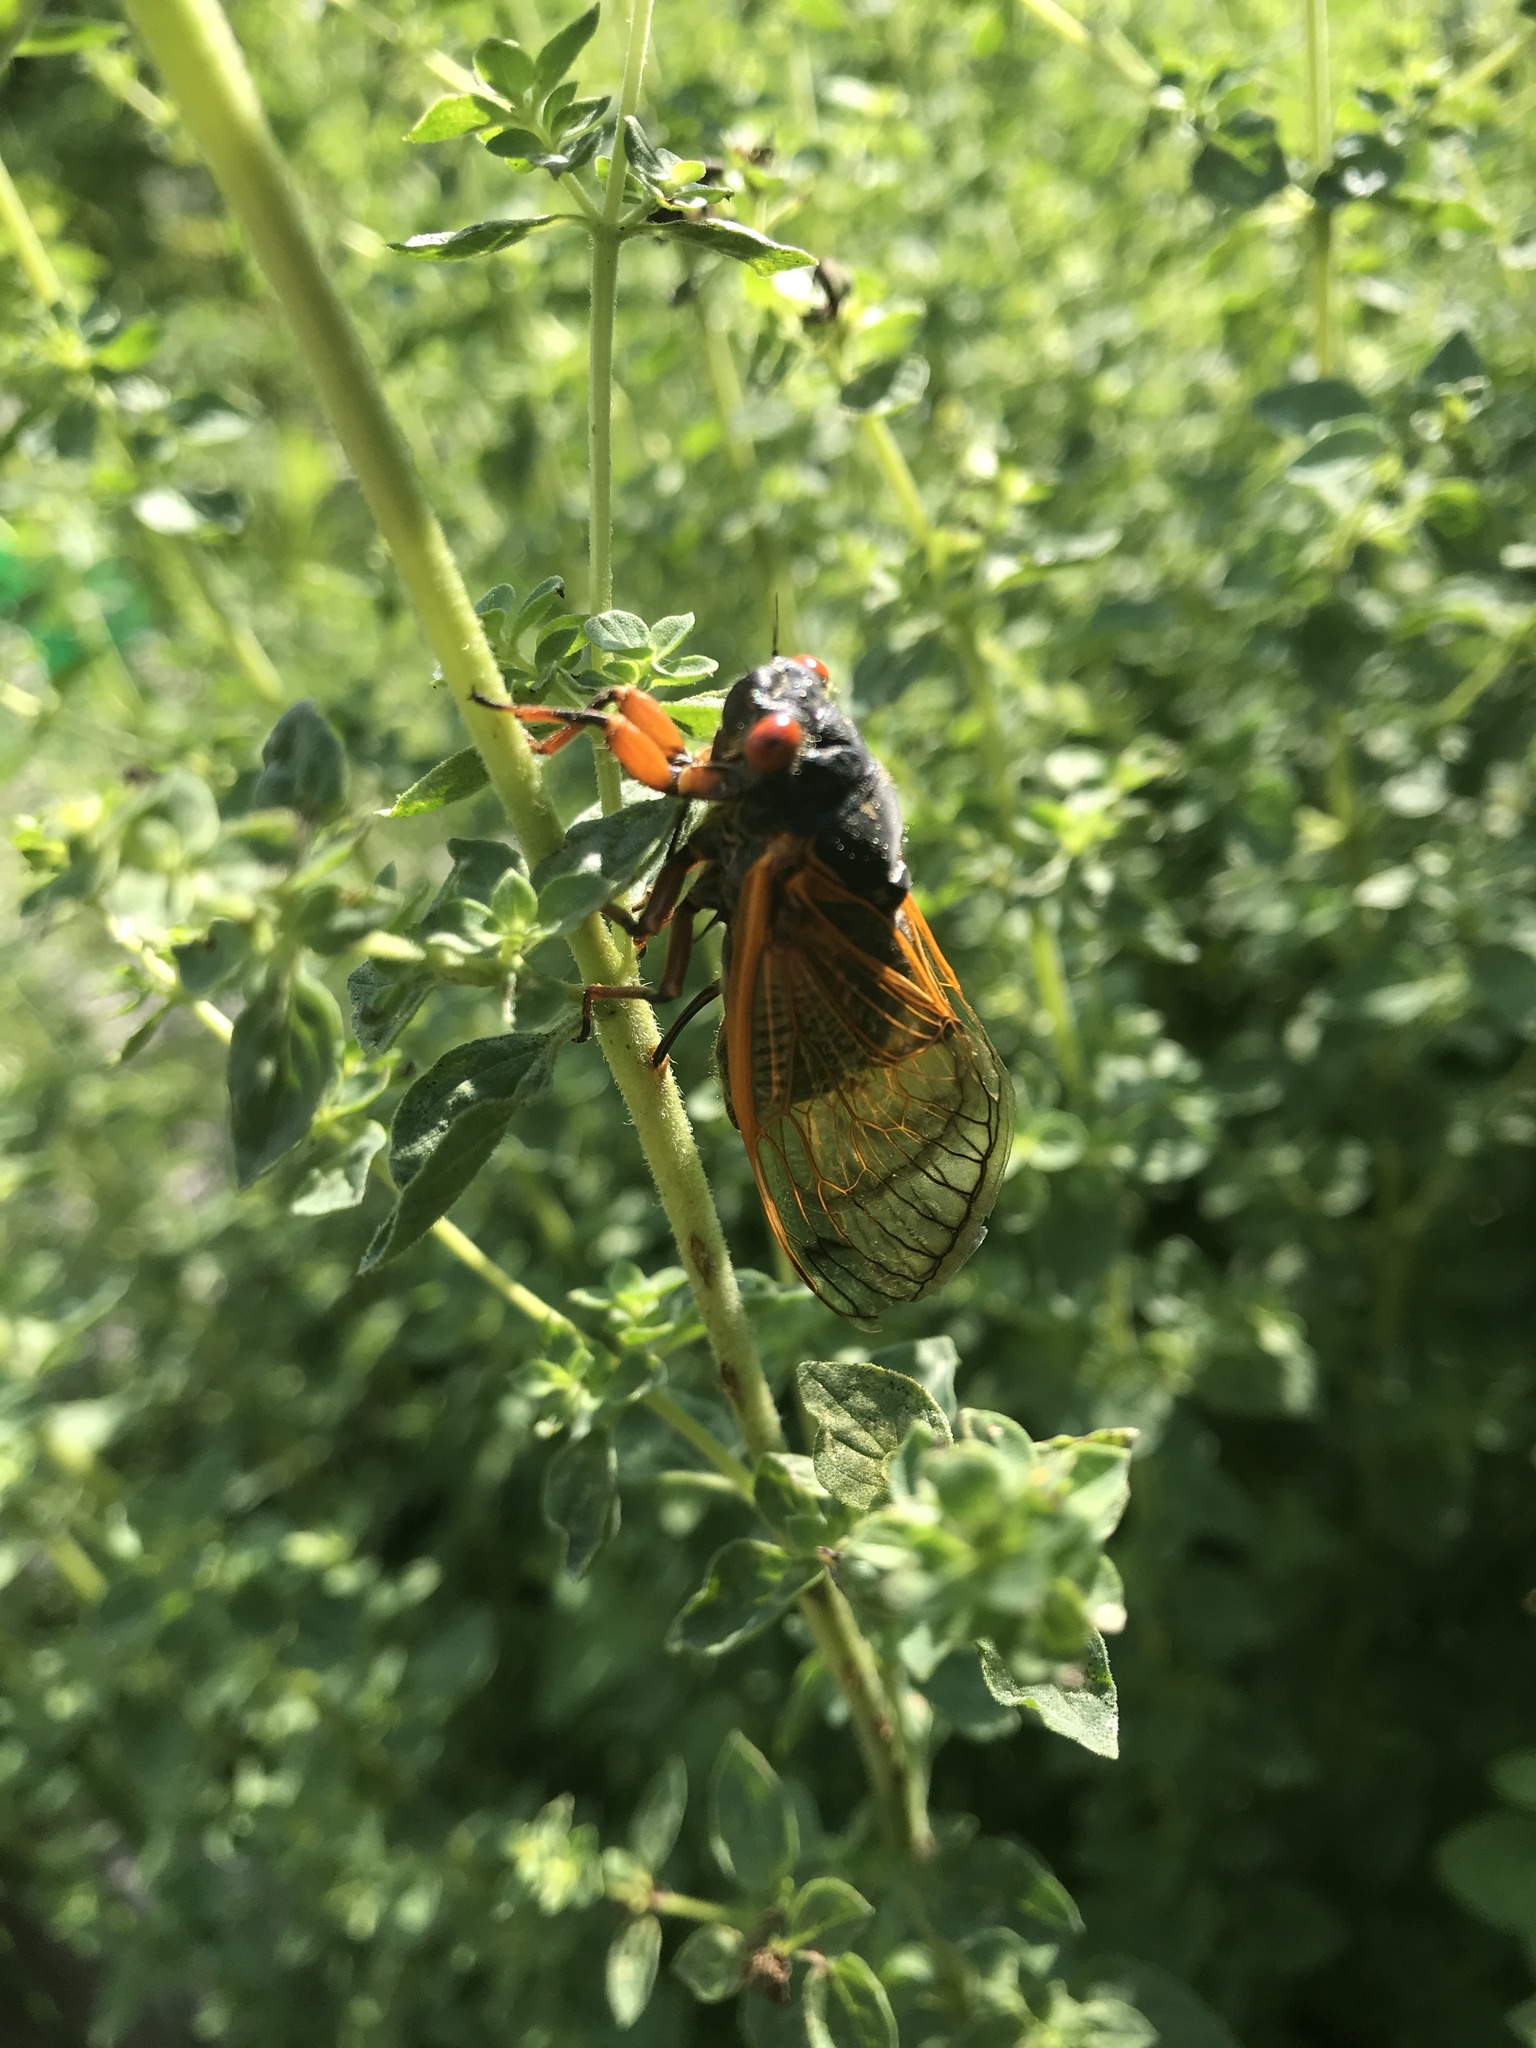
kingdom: Animalia
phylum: Arthropoda
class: Insecta
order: Hemiptera
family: Cicadidae
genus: Magicicada
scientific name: Magicicada
